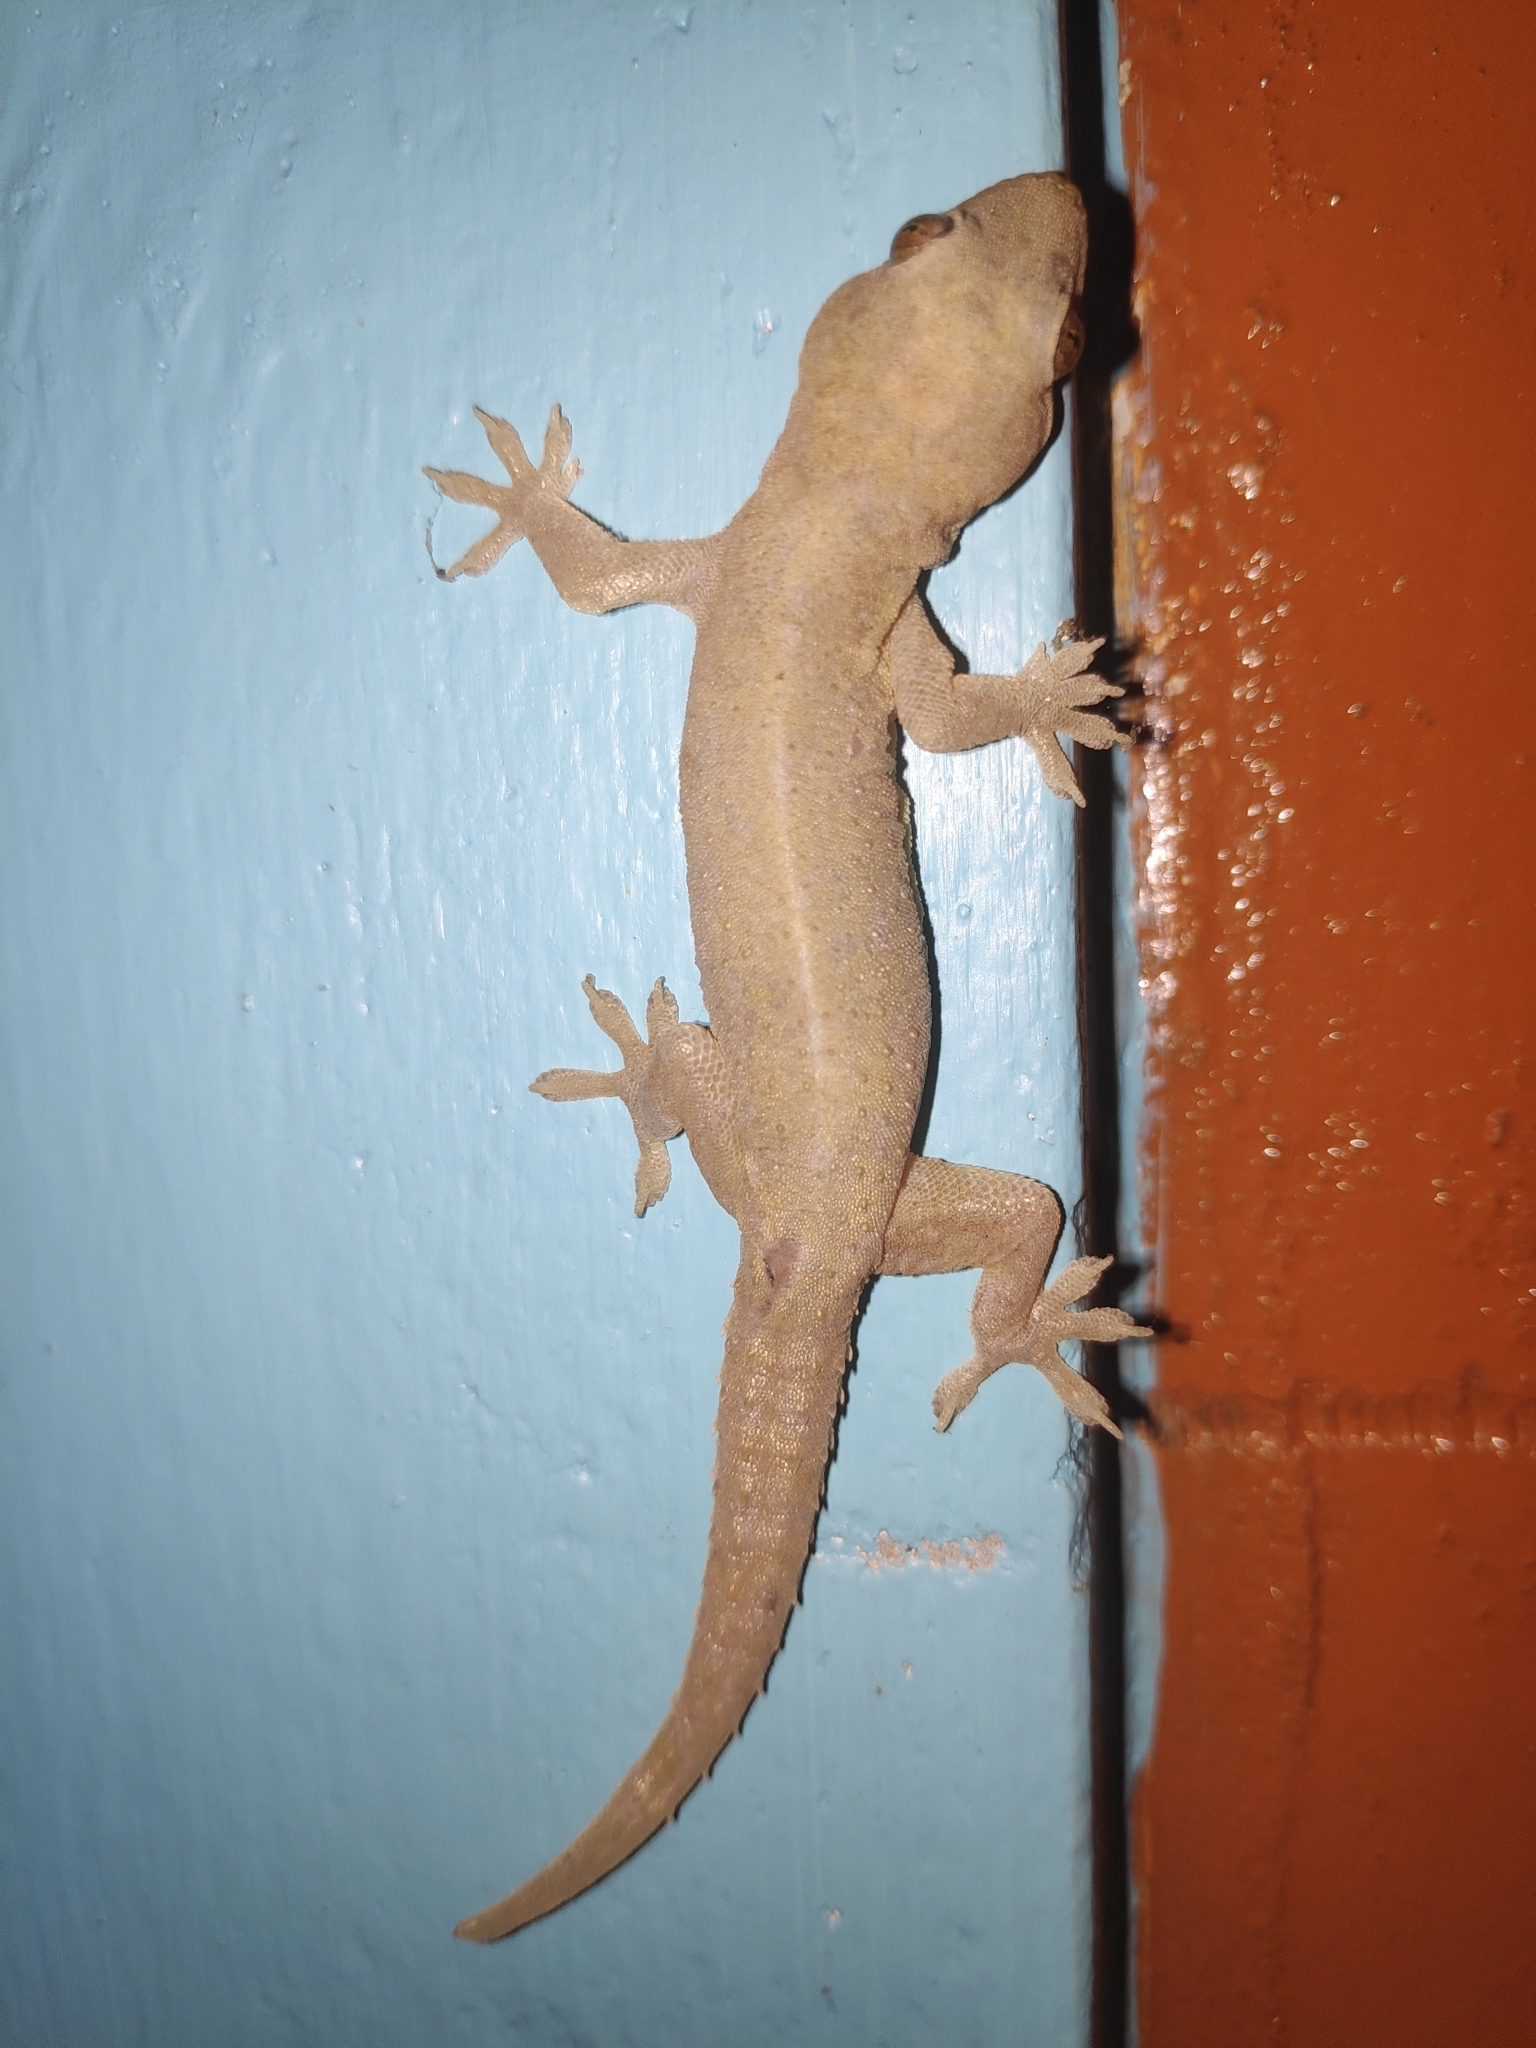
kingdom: Animalia
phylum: Chordata
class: Squamata
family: Gekkonidae
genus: Hemidactylus
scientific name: Hemidactylus frenatus
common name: Common house gecko
